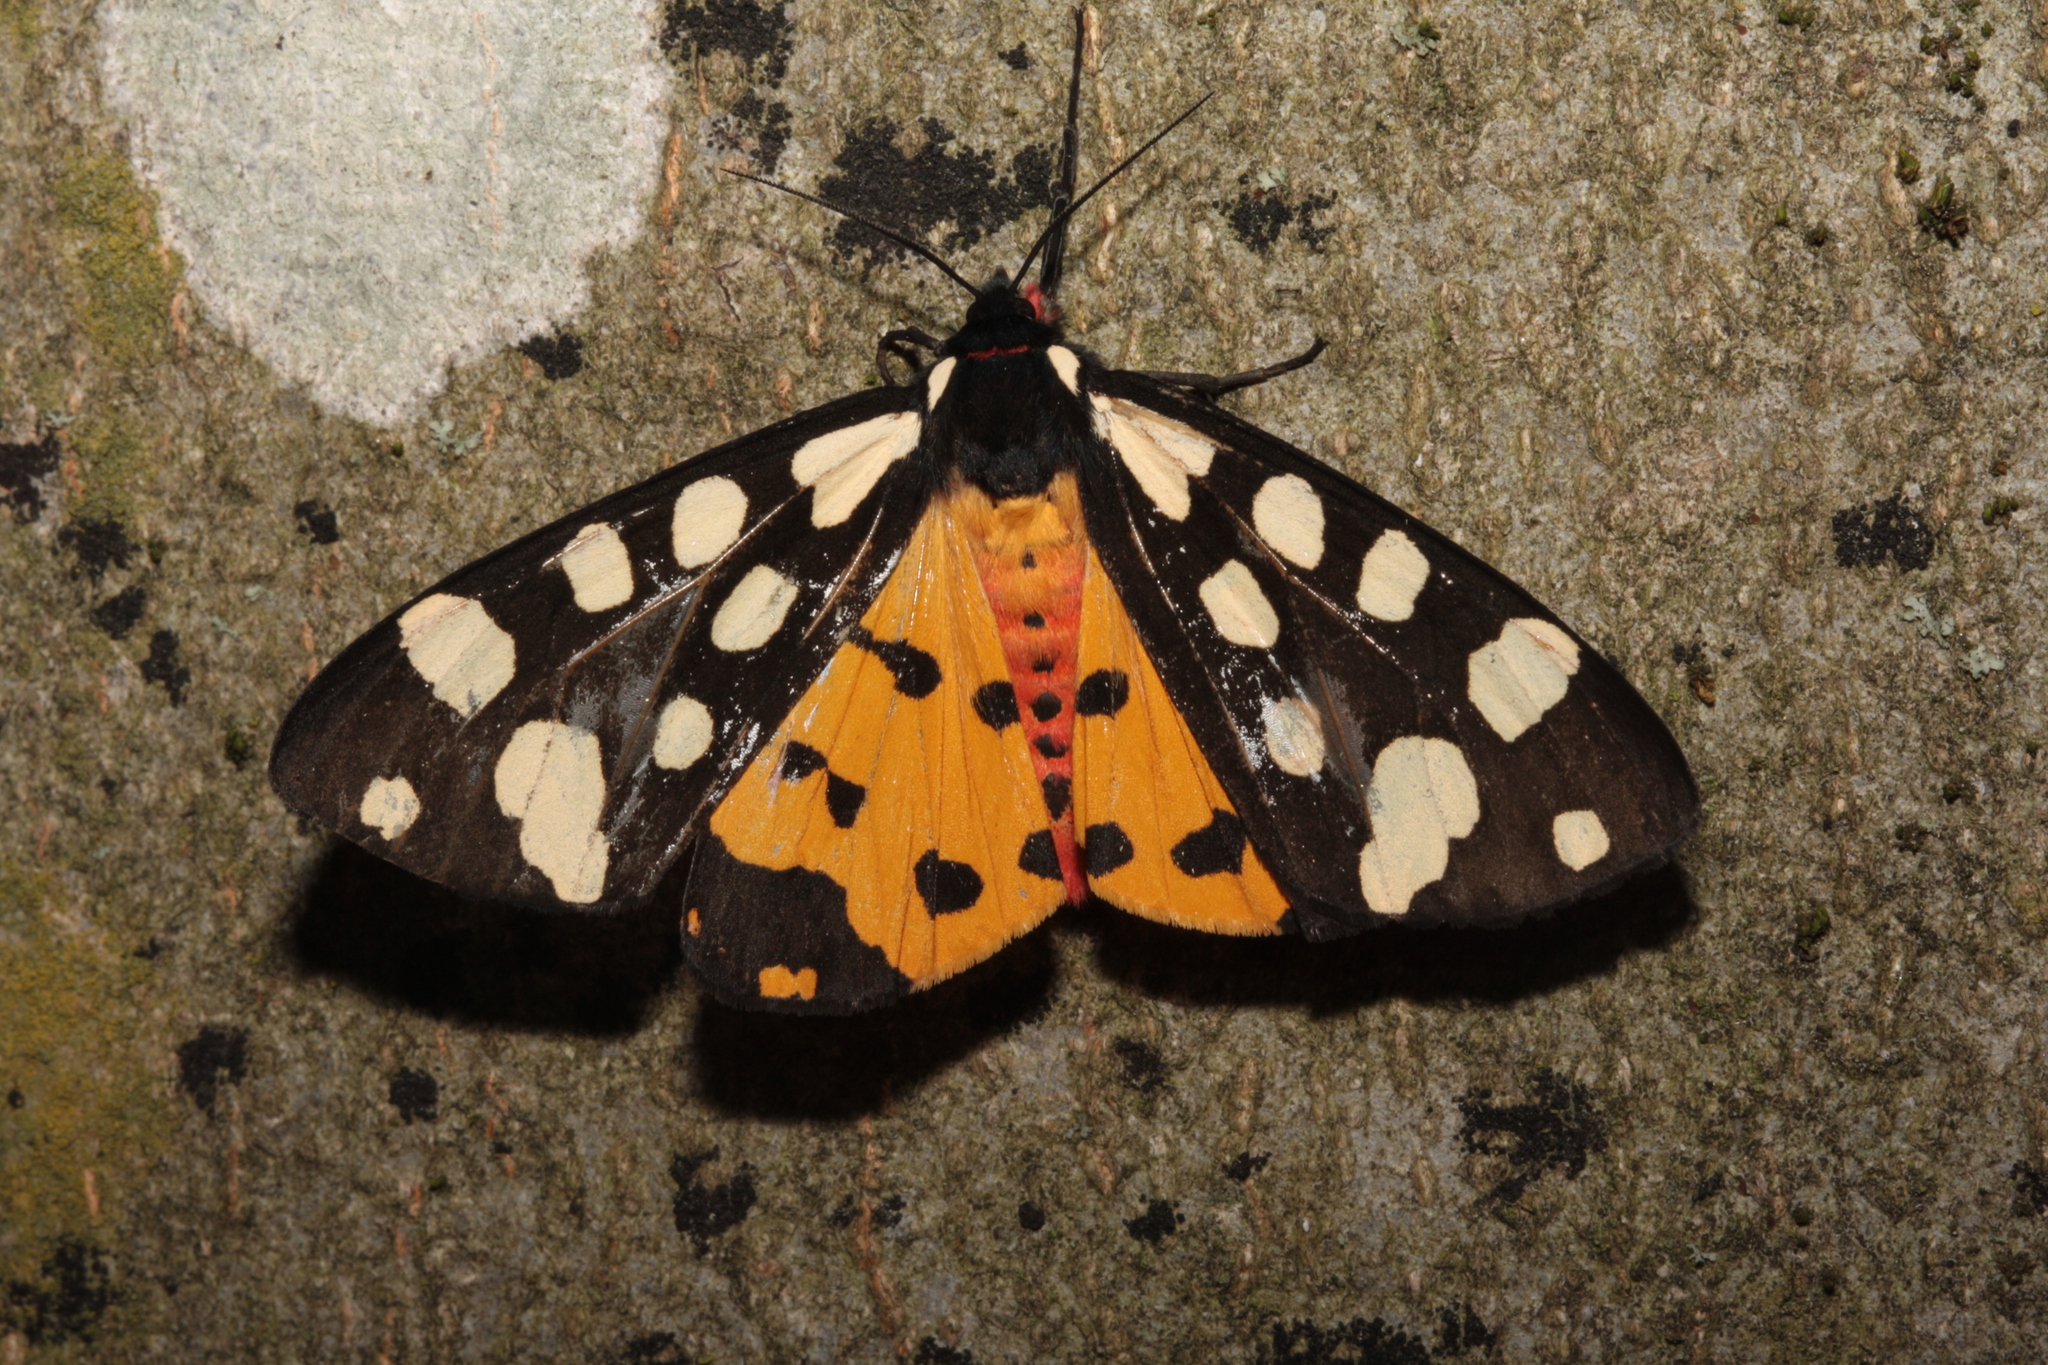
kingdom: Animalia
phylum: Arthropoda
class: Insecta
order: Lepidoptera
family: Erebidae
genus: Epicallia
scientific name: Epicallia villica
